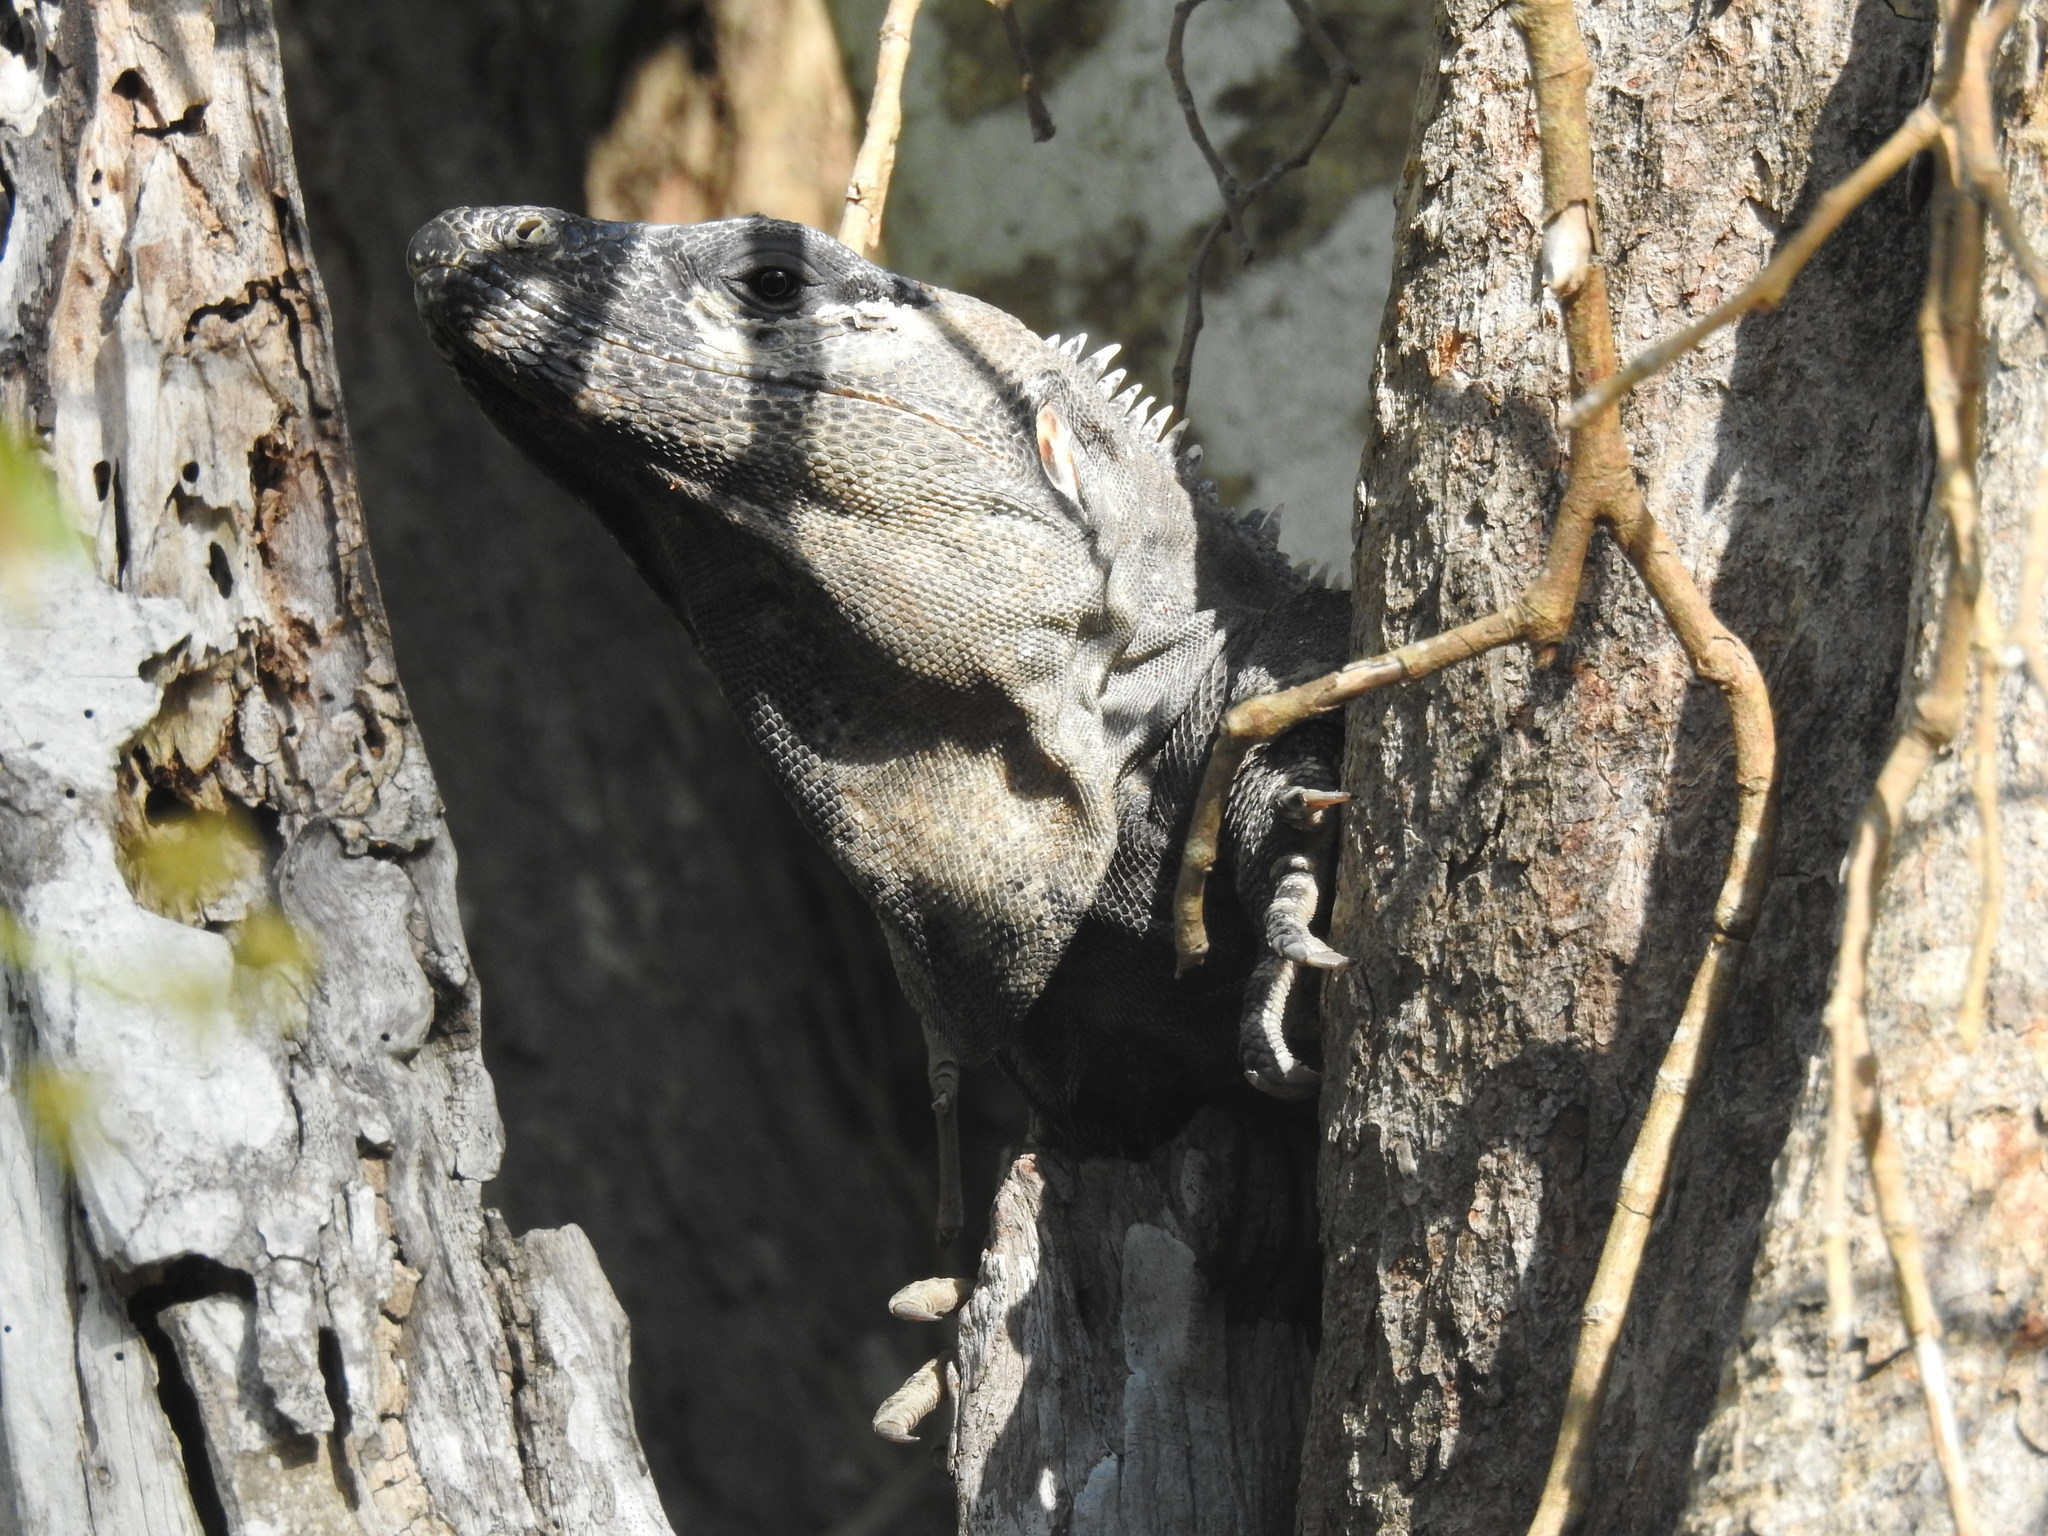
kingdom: Animalia
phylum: Chordata
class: Squamata
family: Iguanidae
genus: Ctenosaura
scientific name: Ctenosaura similis
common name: Black spiny-tailed iguana
